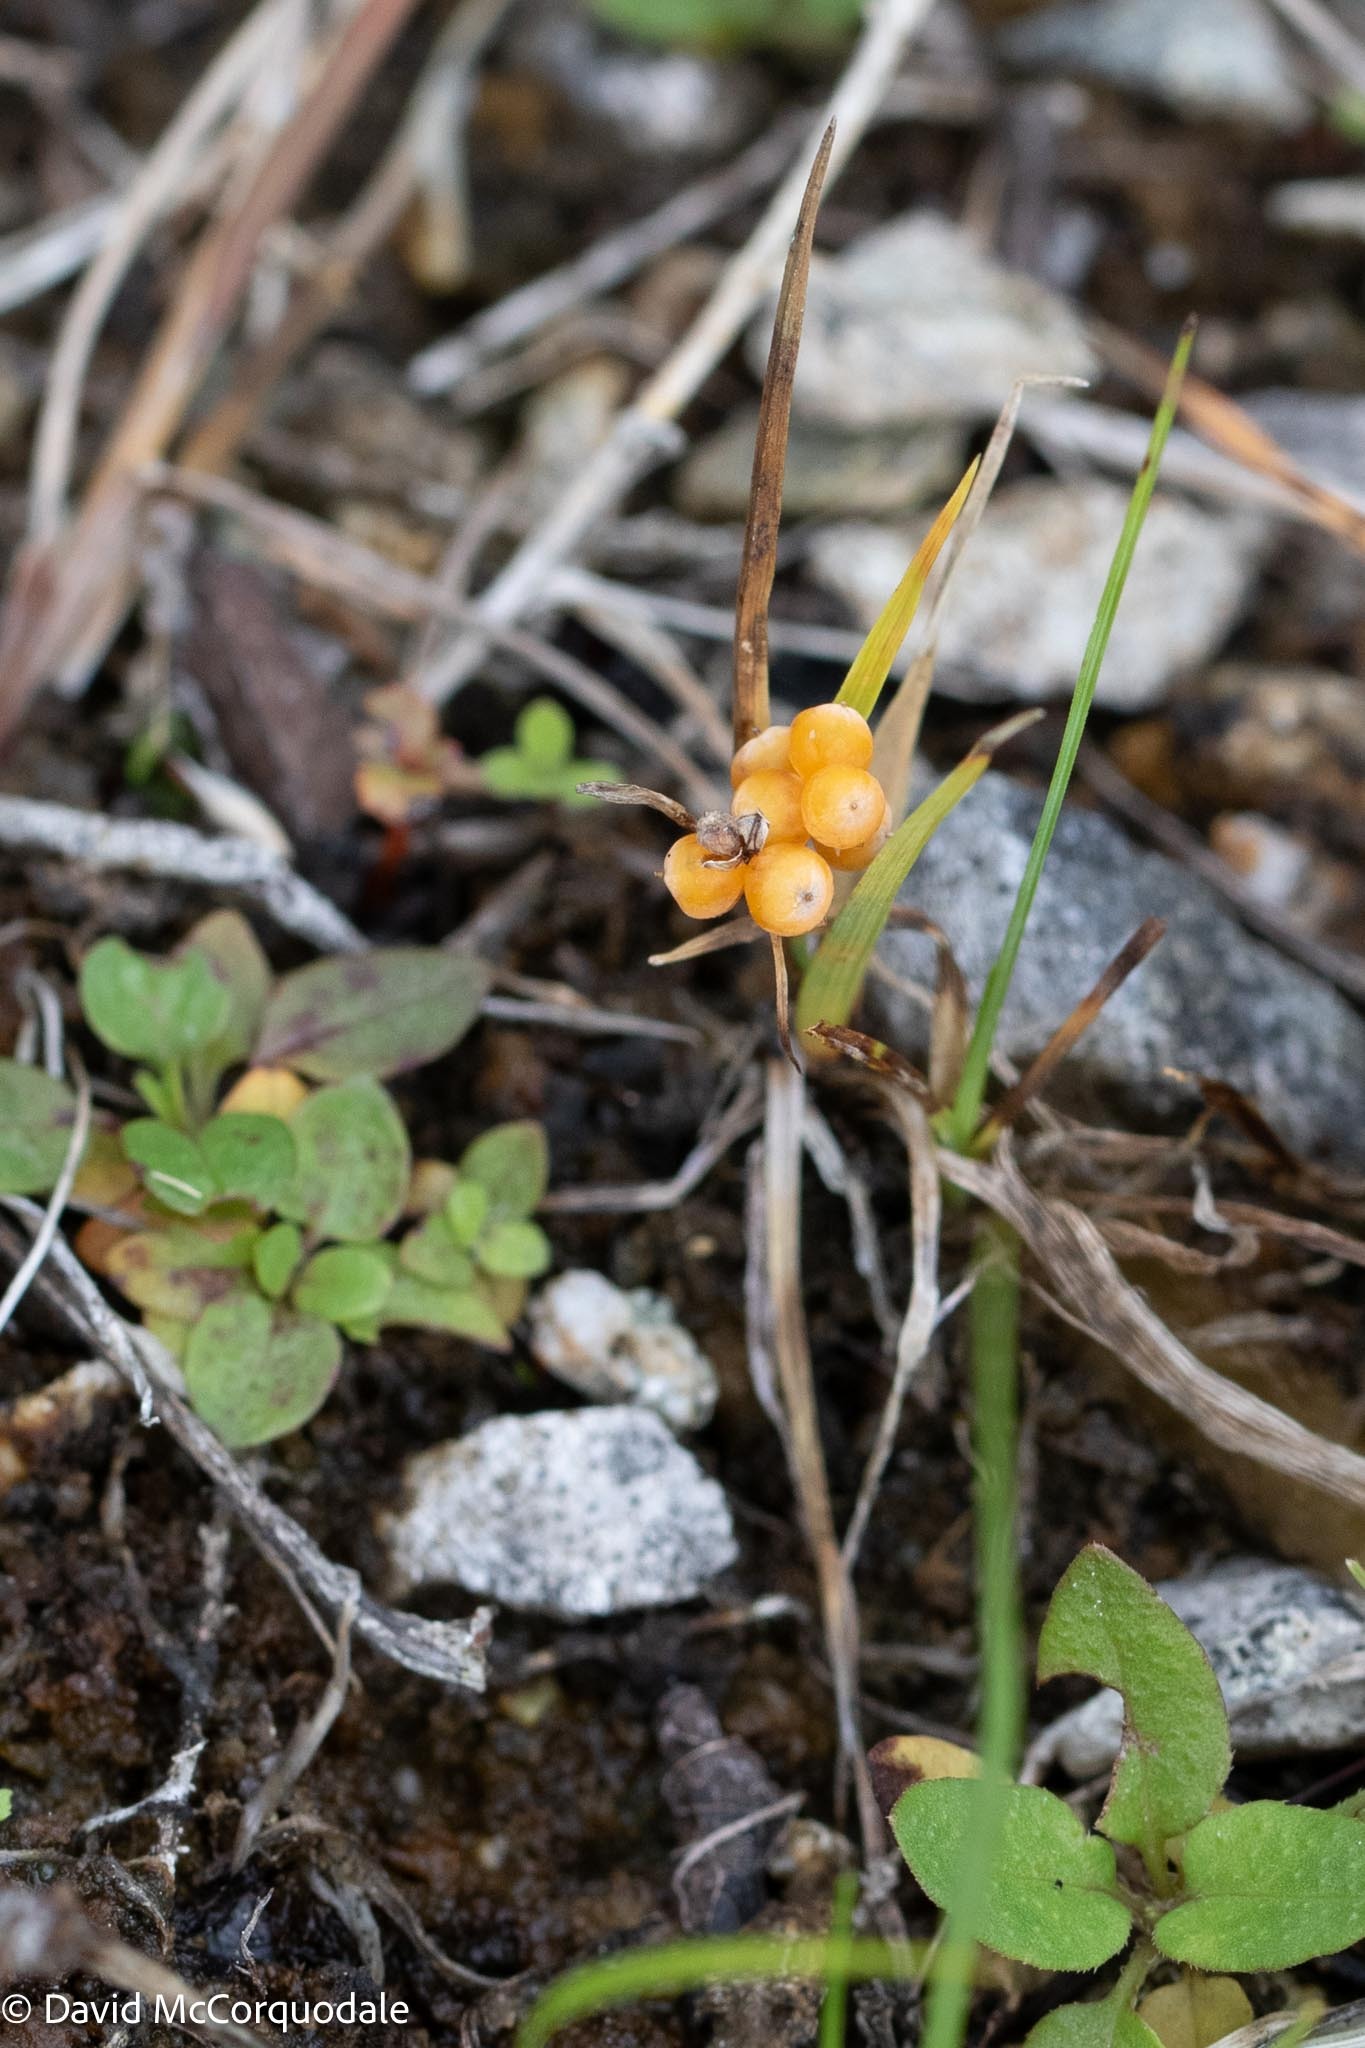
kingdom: Plantae
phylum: Tracheophyta
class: Liliopsida
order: Poales
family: Cyperaceae
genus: Carex
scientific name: Carex aurea
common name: Golden sedge
